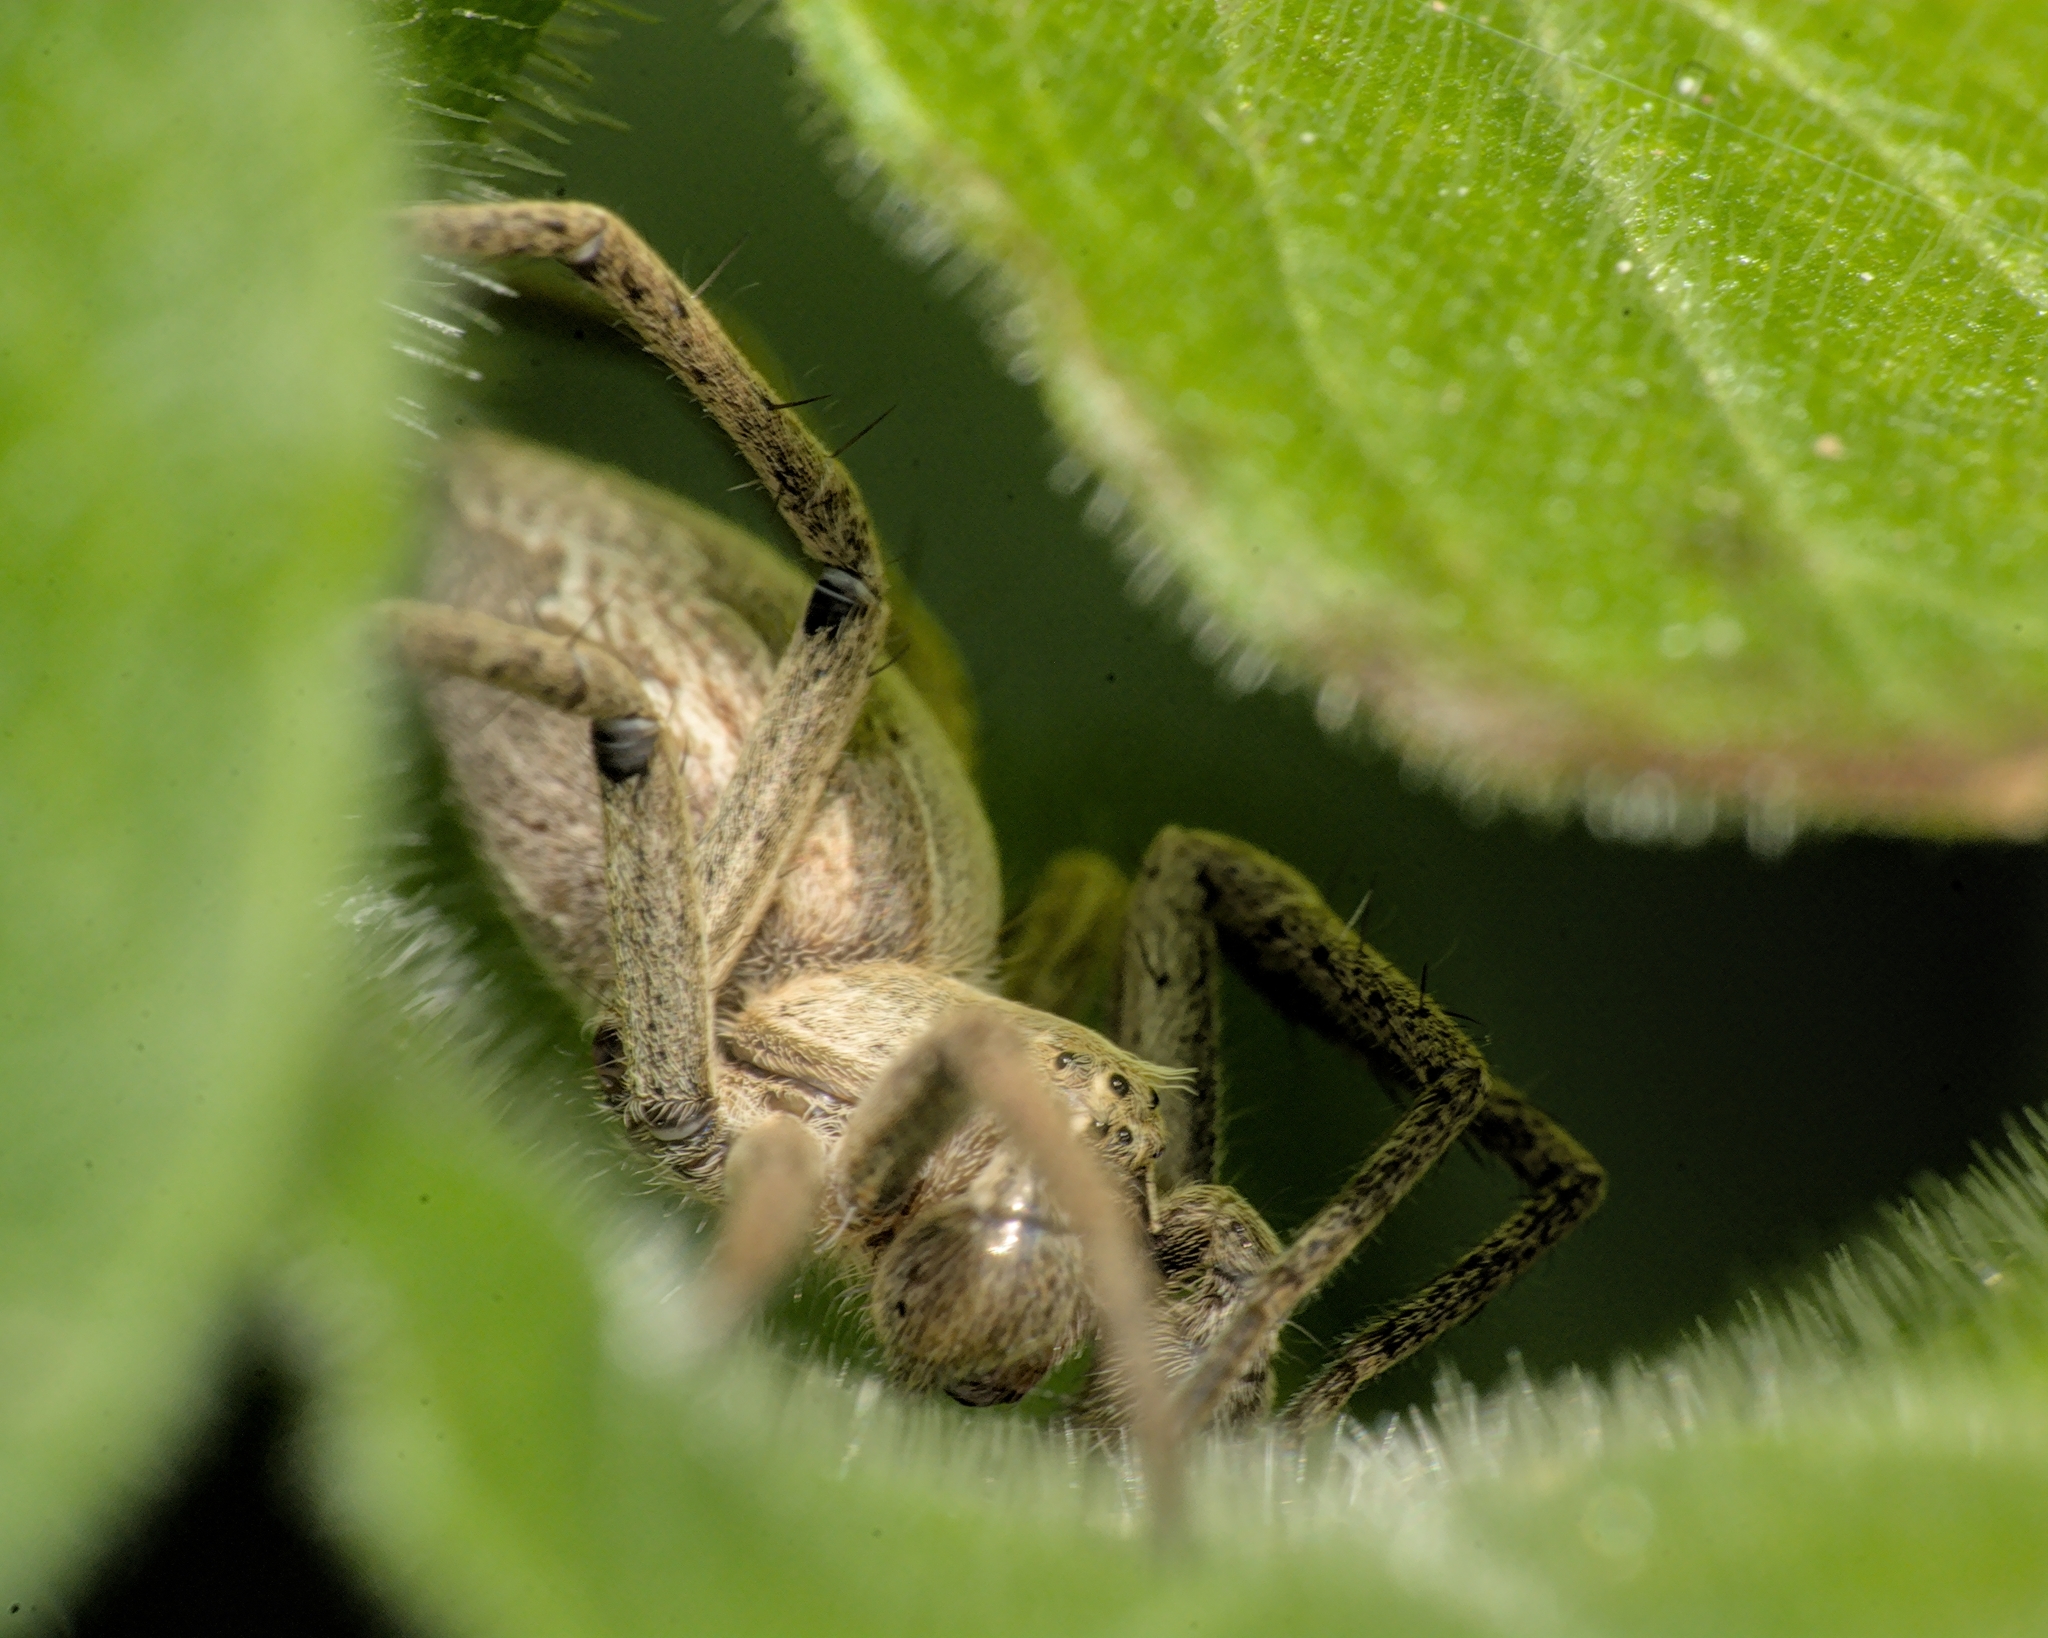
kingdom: Animalia
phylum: Arthropoda
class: Arachnida
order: Araneae
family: Pisauridae
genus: Pisaura
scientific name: Pisaura mirabilis
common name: Tent spider
